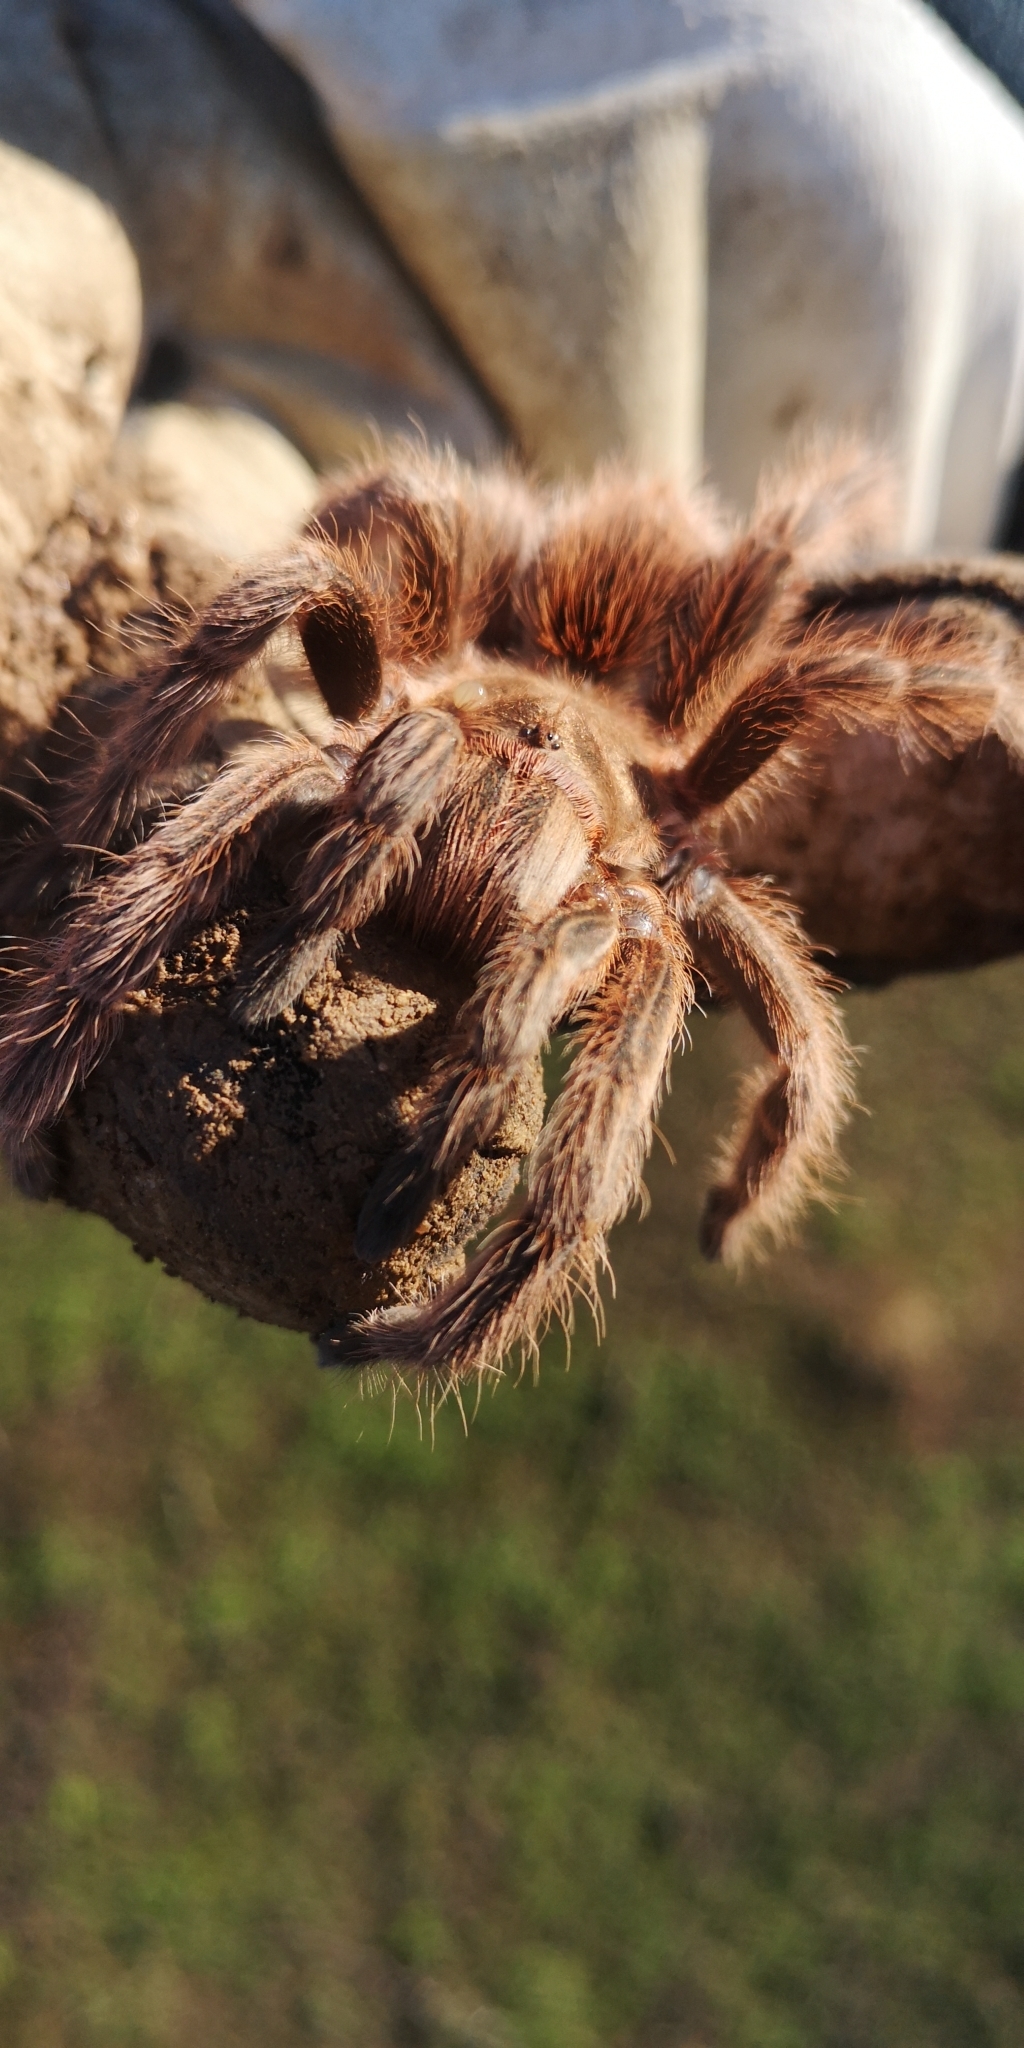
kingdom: Animalia
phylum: Arthropoda
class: Arachnida
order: Araneae
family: Theraphosidae
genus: Euathlus
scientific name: Euathlus condorito
